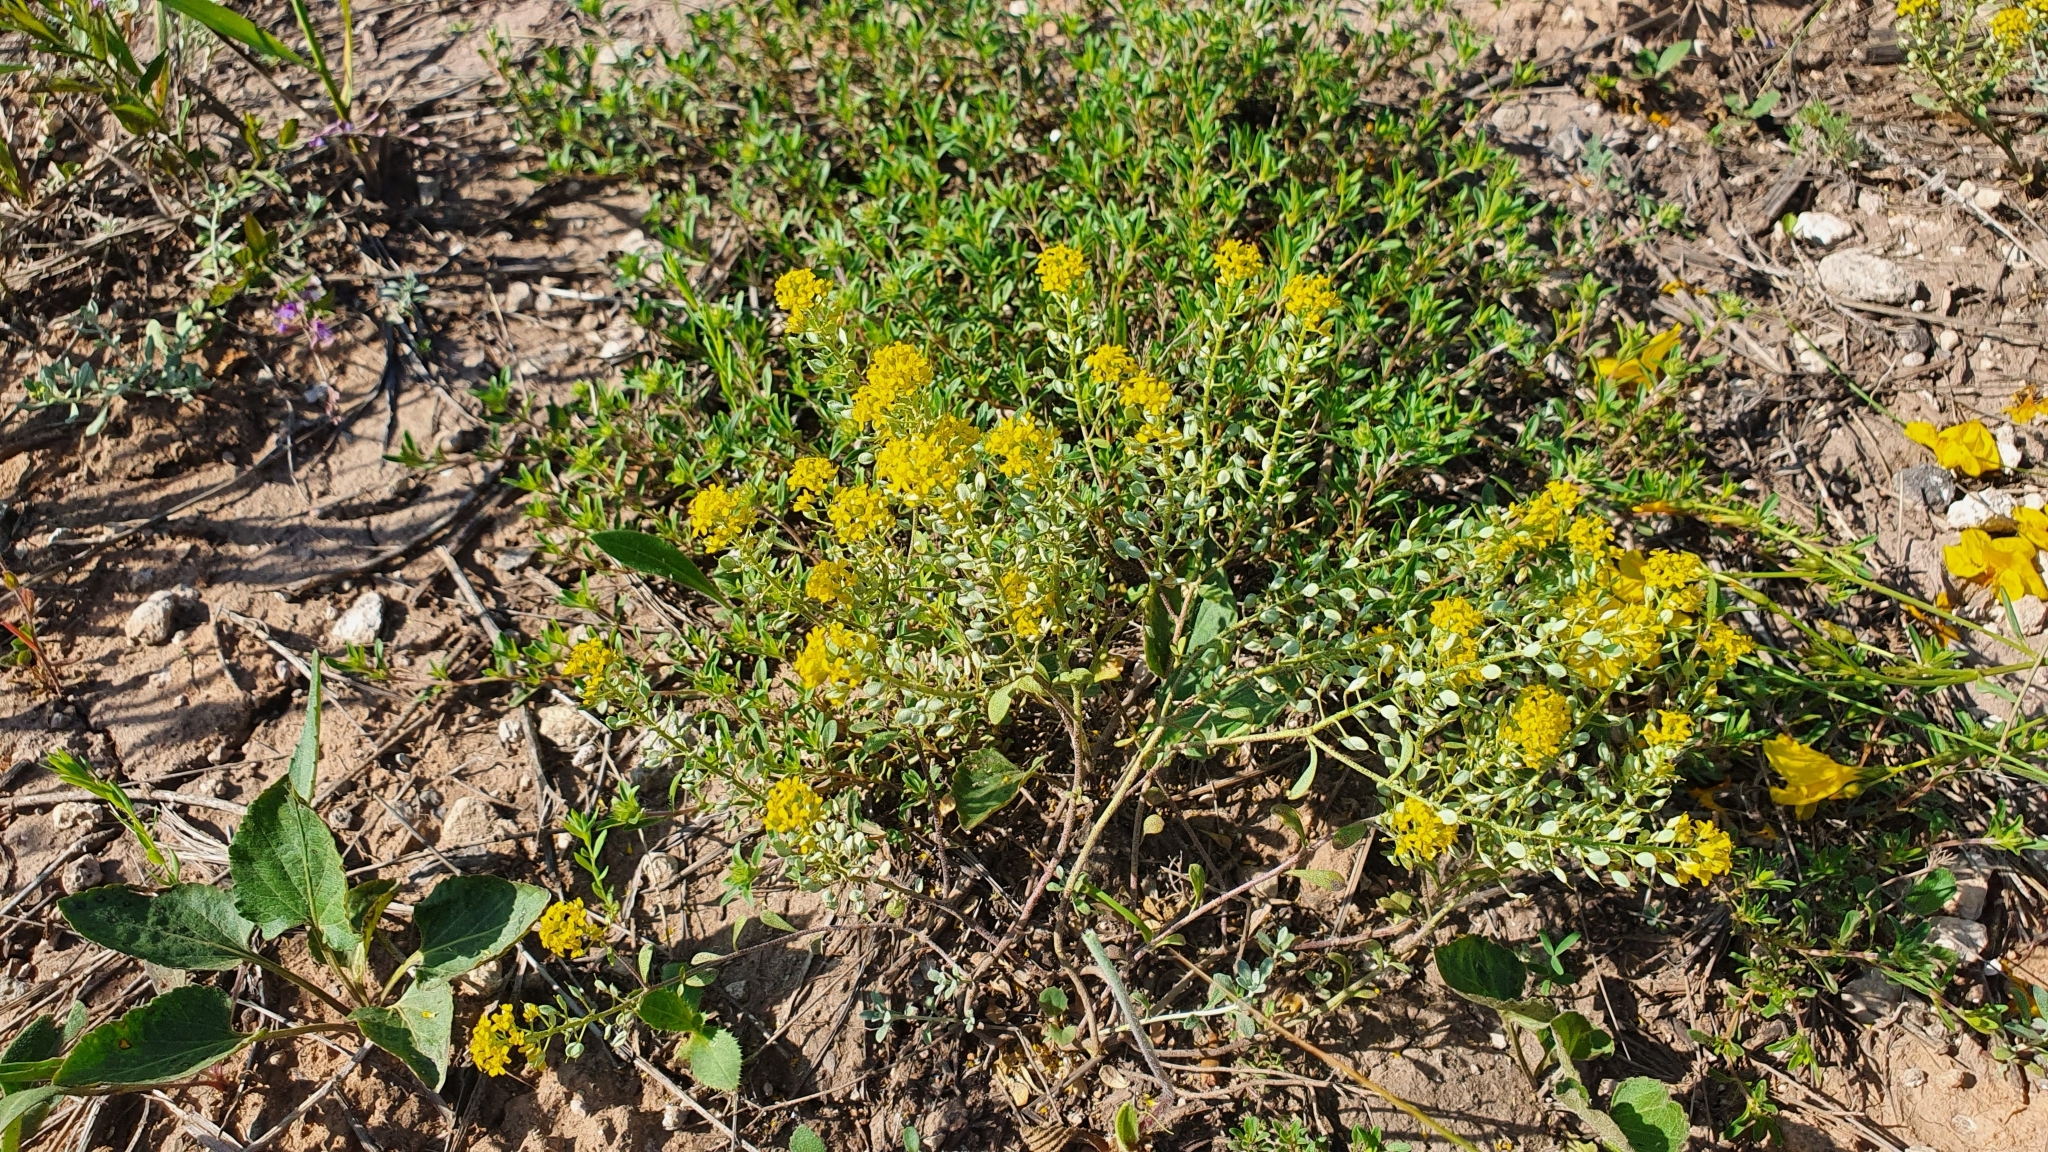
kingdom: Plantae
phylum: Tracheophyta
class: Magnoliopsida
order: Brassicales
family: Brassicaceae
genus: Odontarrhena
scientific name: Odontarrhena tortuosa
